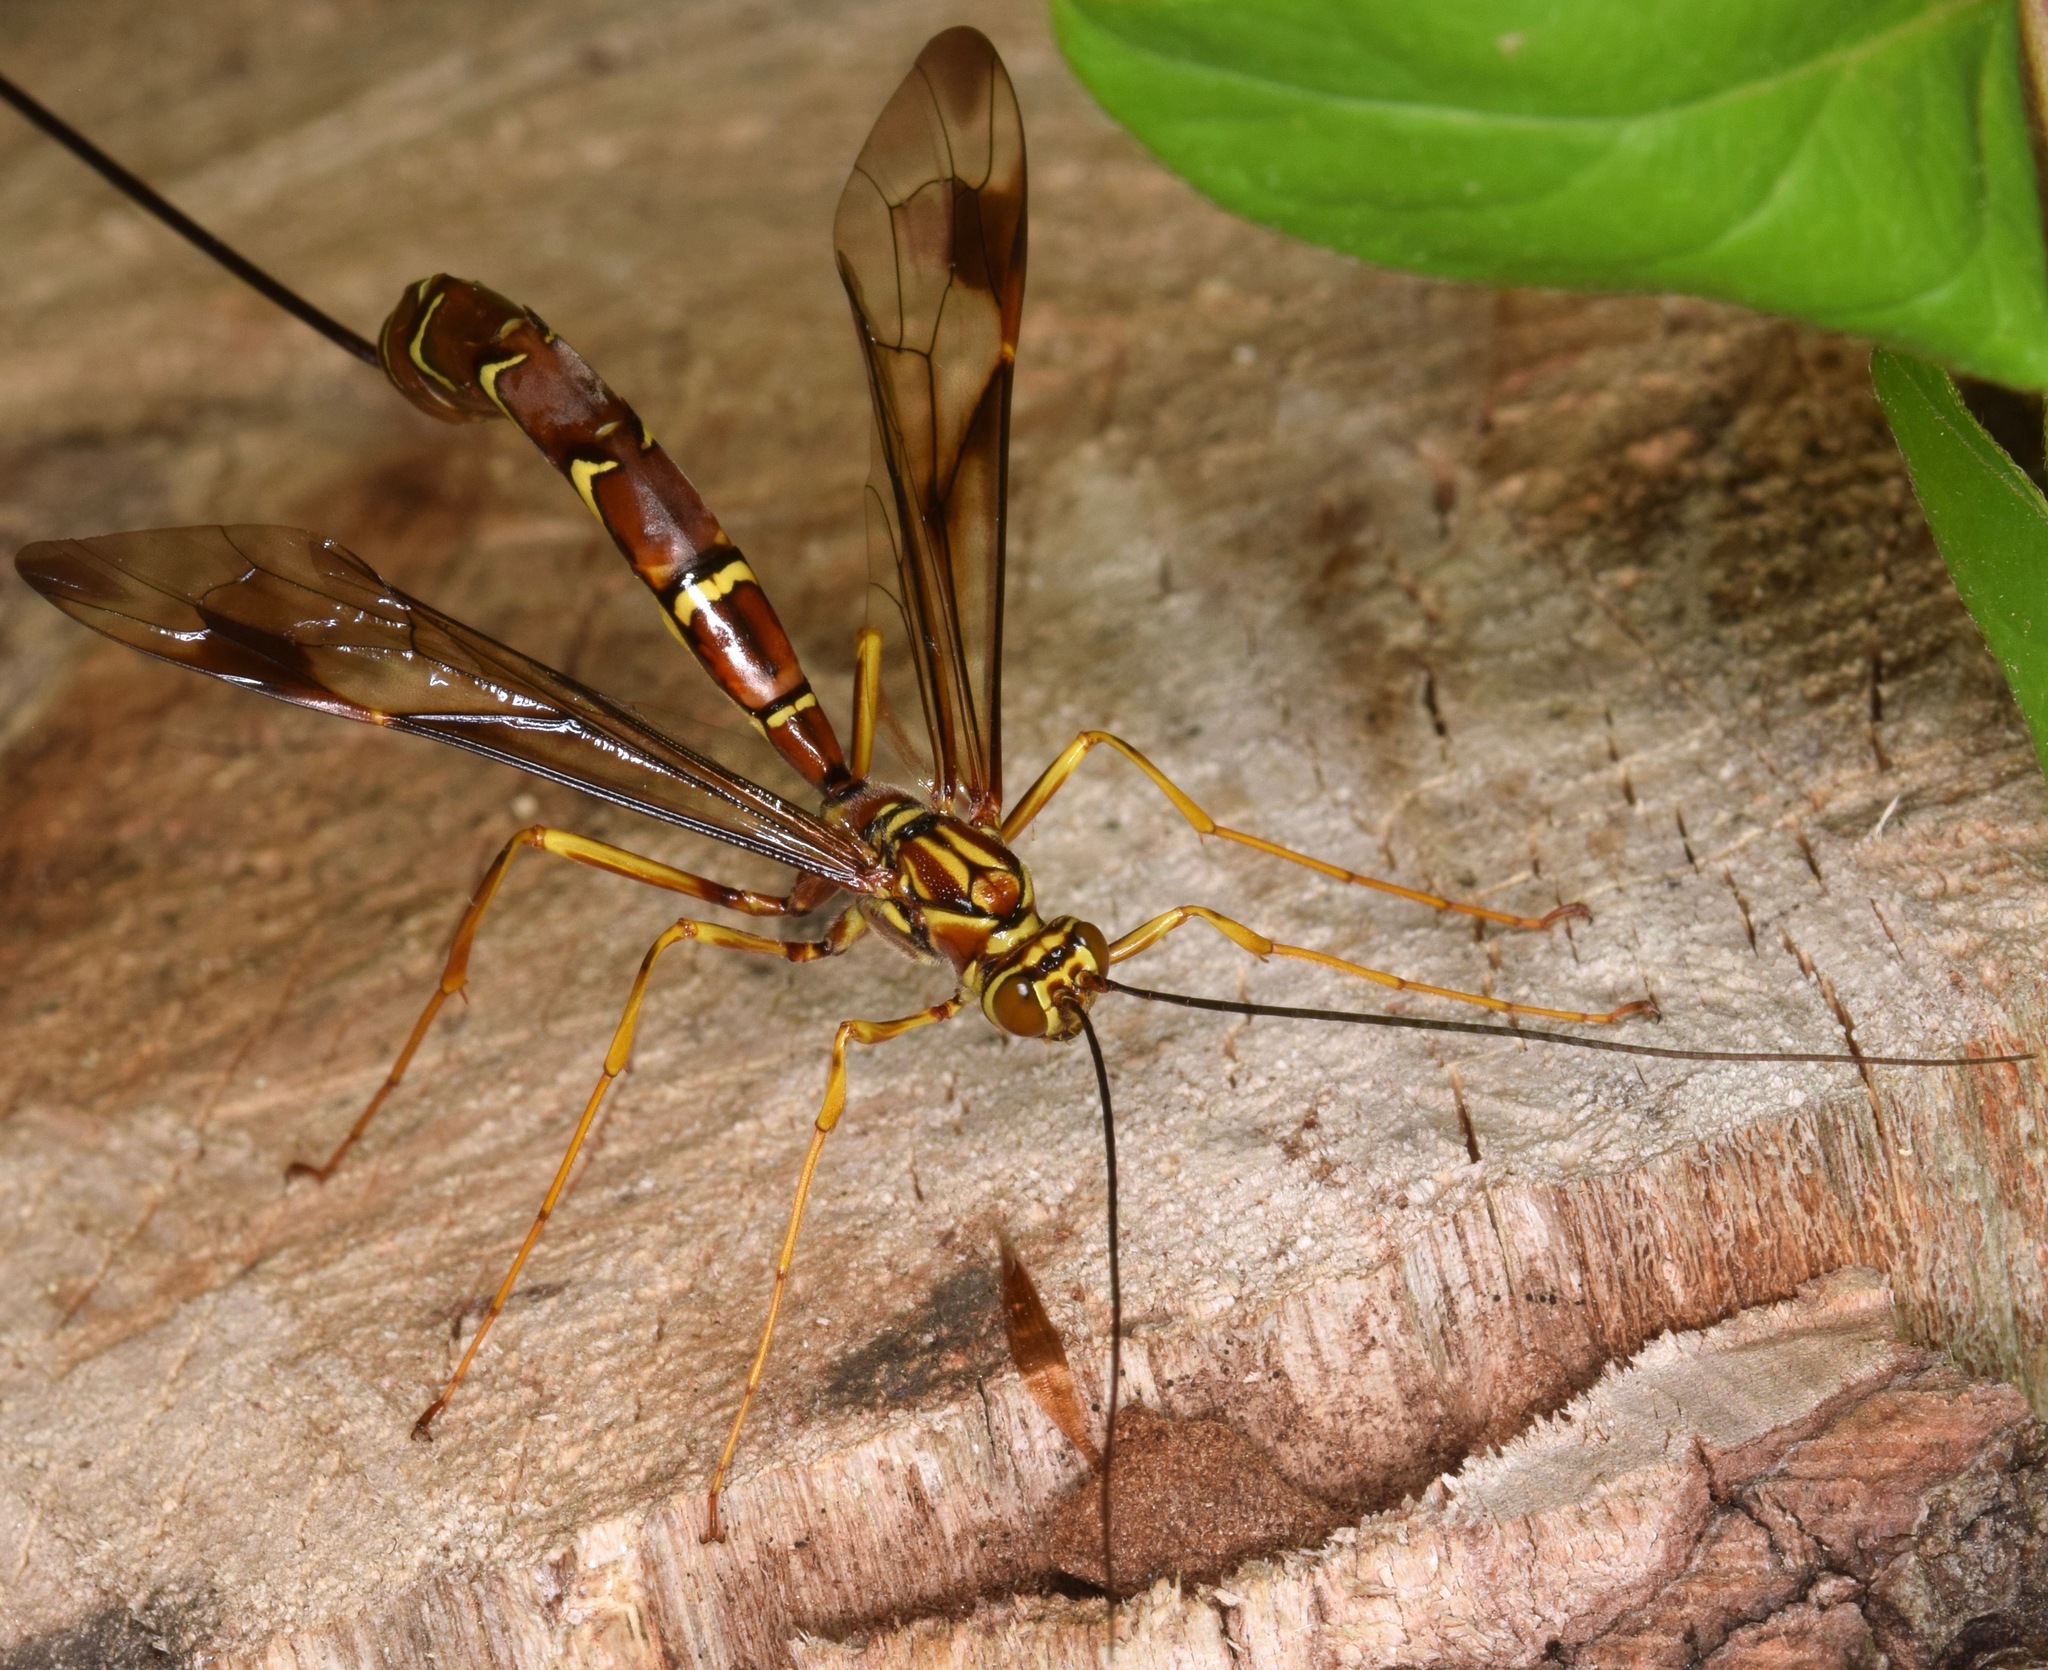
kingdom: Animalia
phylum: Arthropoda
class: Insecta
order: Hymenoptera
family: Ichneumonidae
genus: Megarhyssa
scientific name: Megarhyssa macrura
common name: Long-tailed giant ichneumonid wasp
